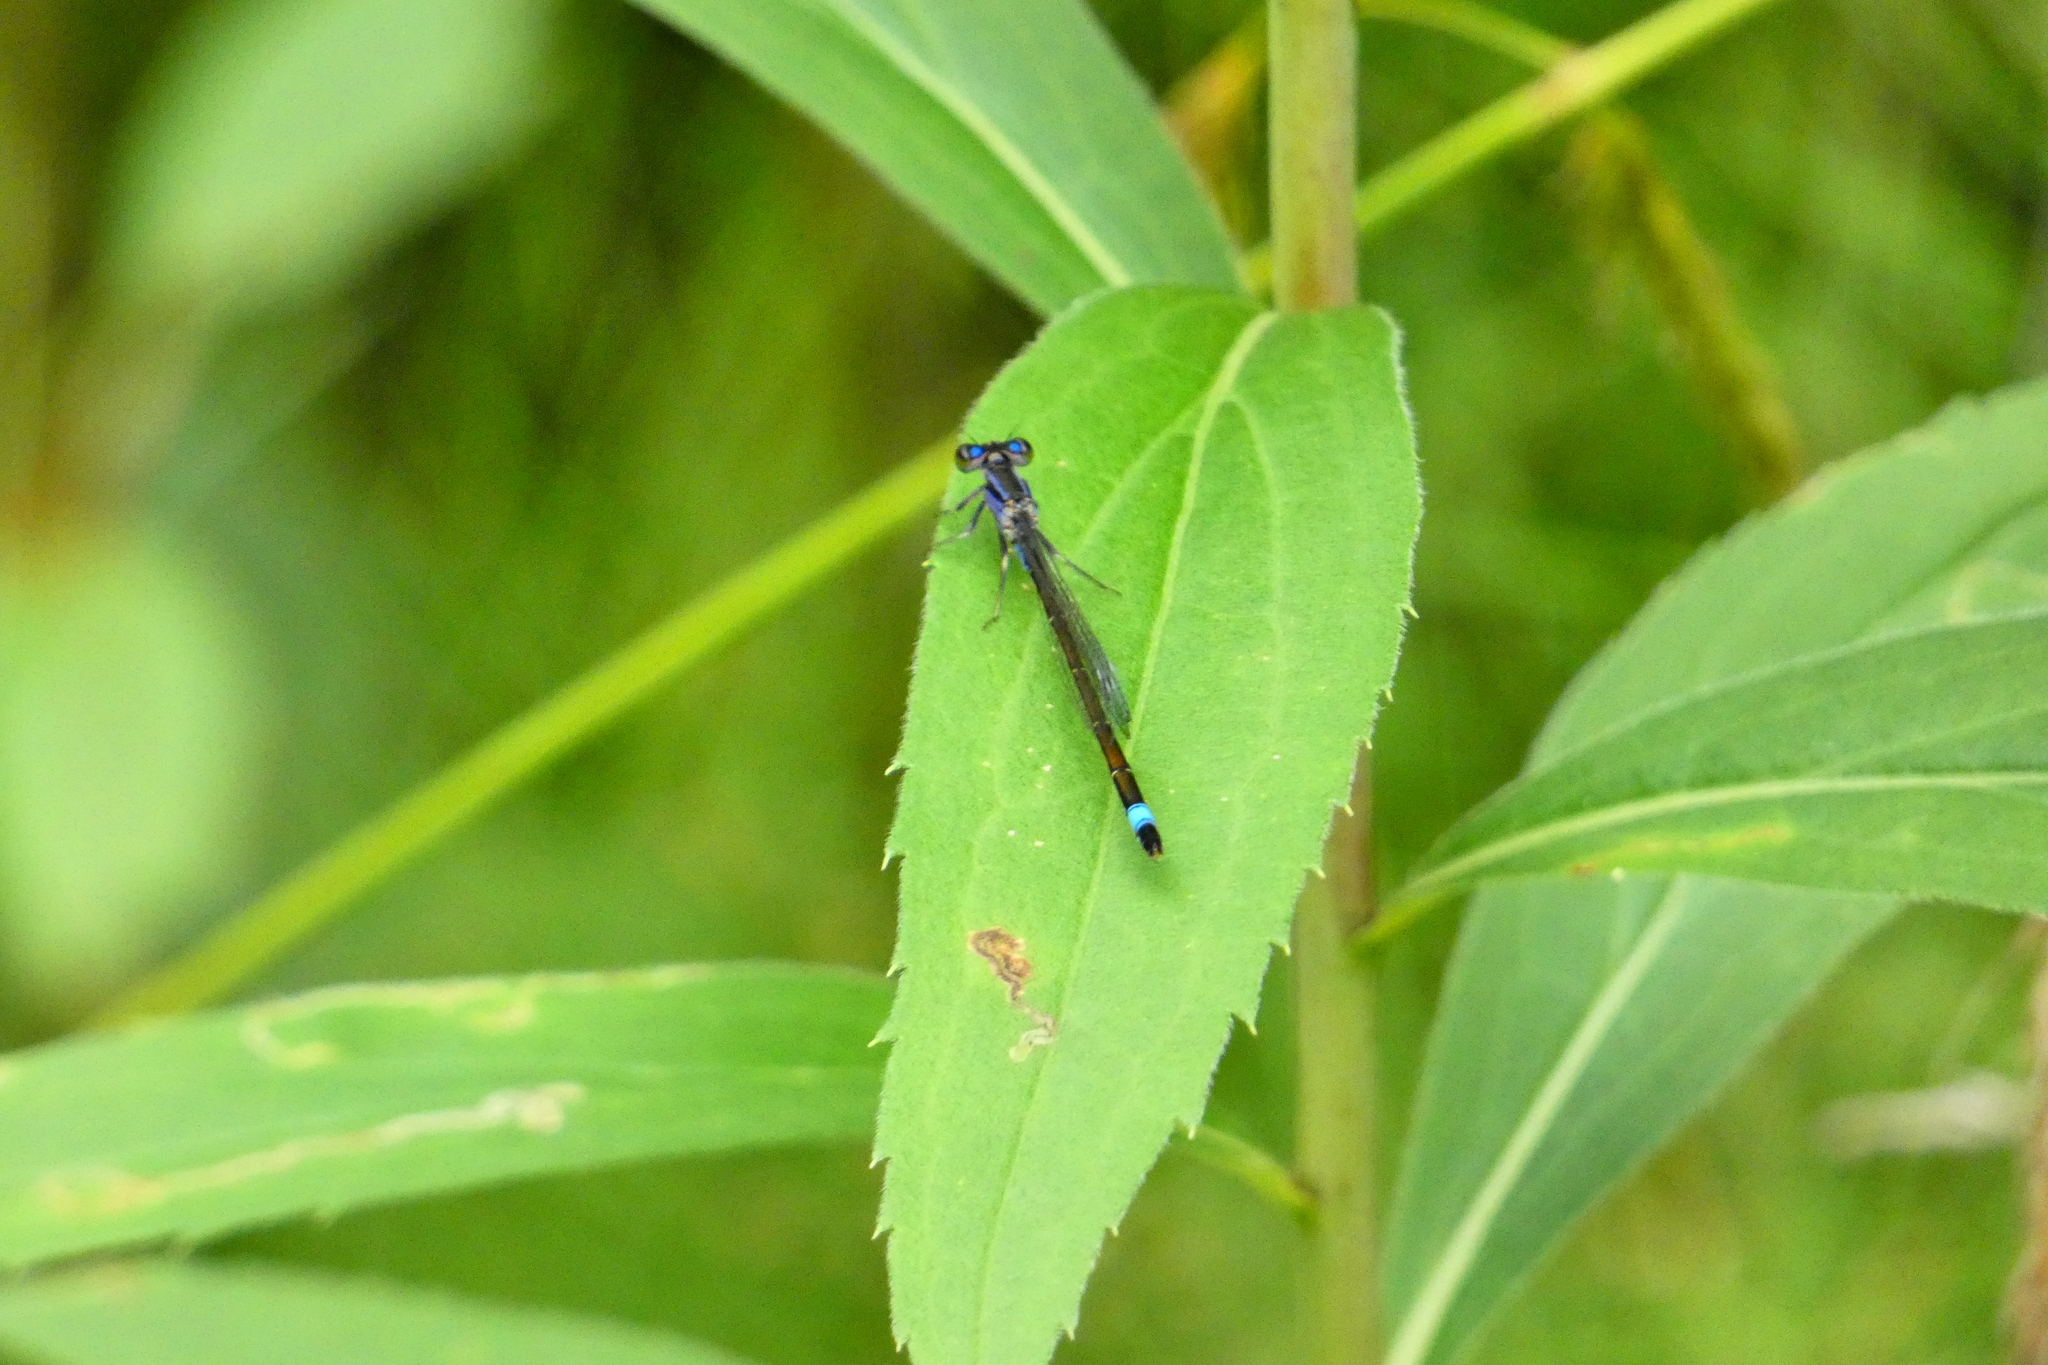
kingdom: Animalia
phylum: Arthropoda
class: Insecta
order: Odonata
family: Coenagrionidae
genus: Ischnura
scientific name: Ischnura elegans
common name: Blue-tailed damselfly
